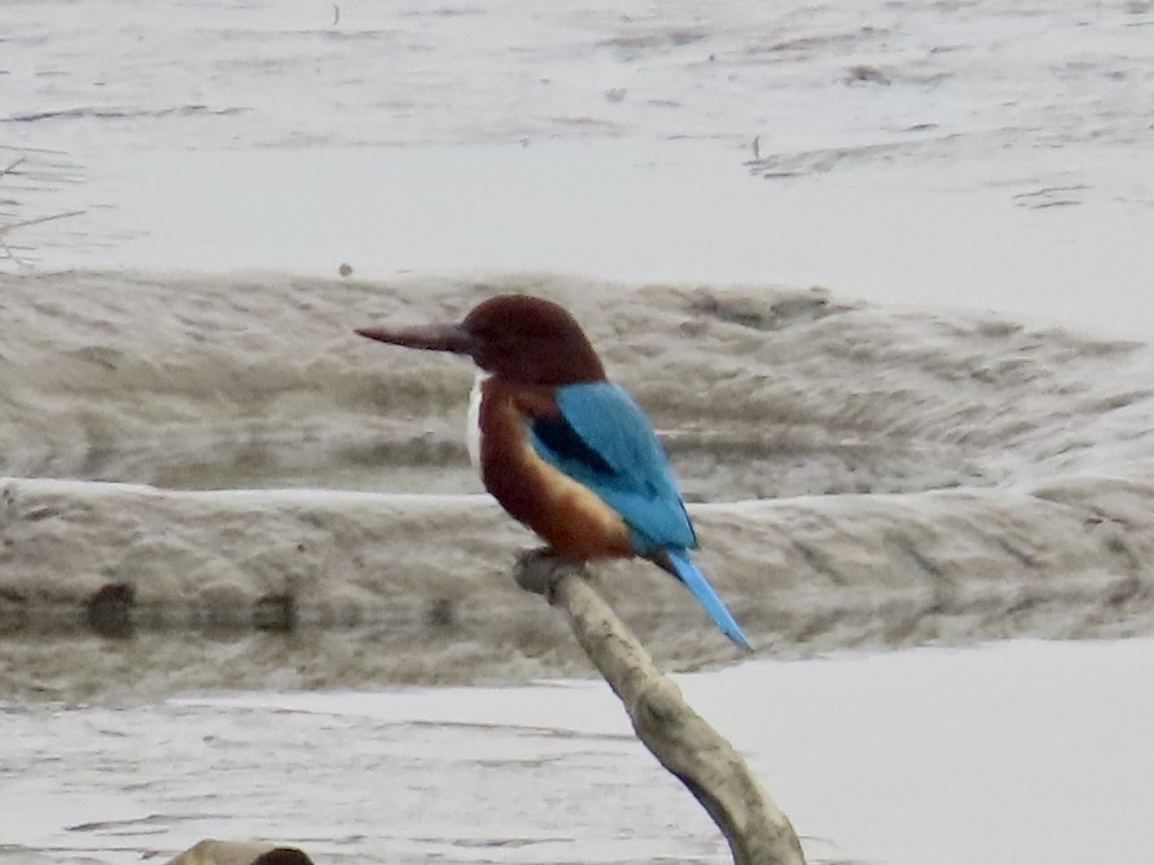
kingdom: Animalia
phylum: Chordata
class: Aves
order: Coraciiformes
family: Alcedinidae
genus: Halcyon
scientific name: Halcyon smyrnensis
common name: White-throated kingfisher
